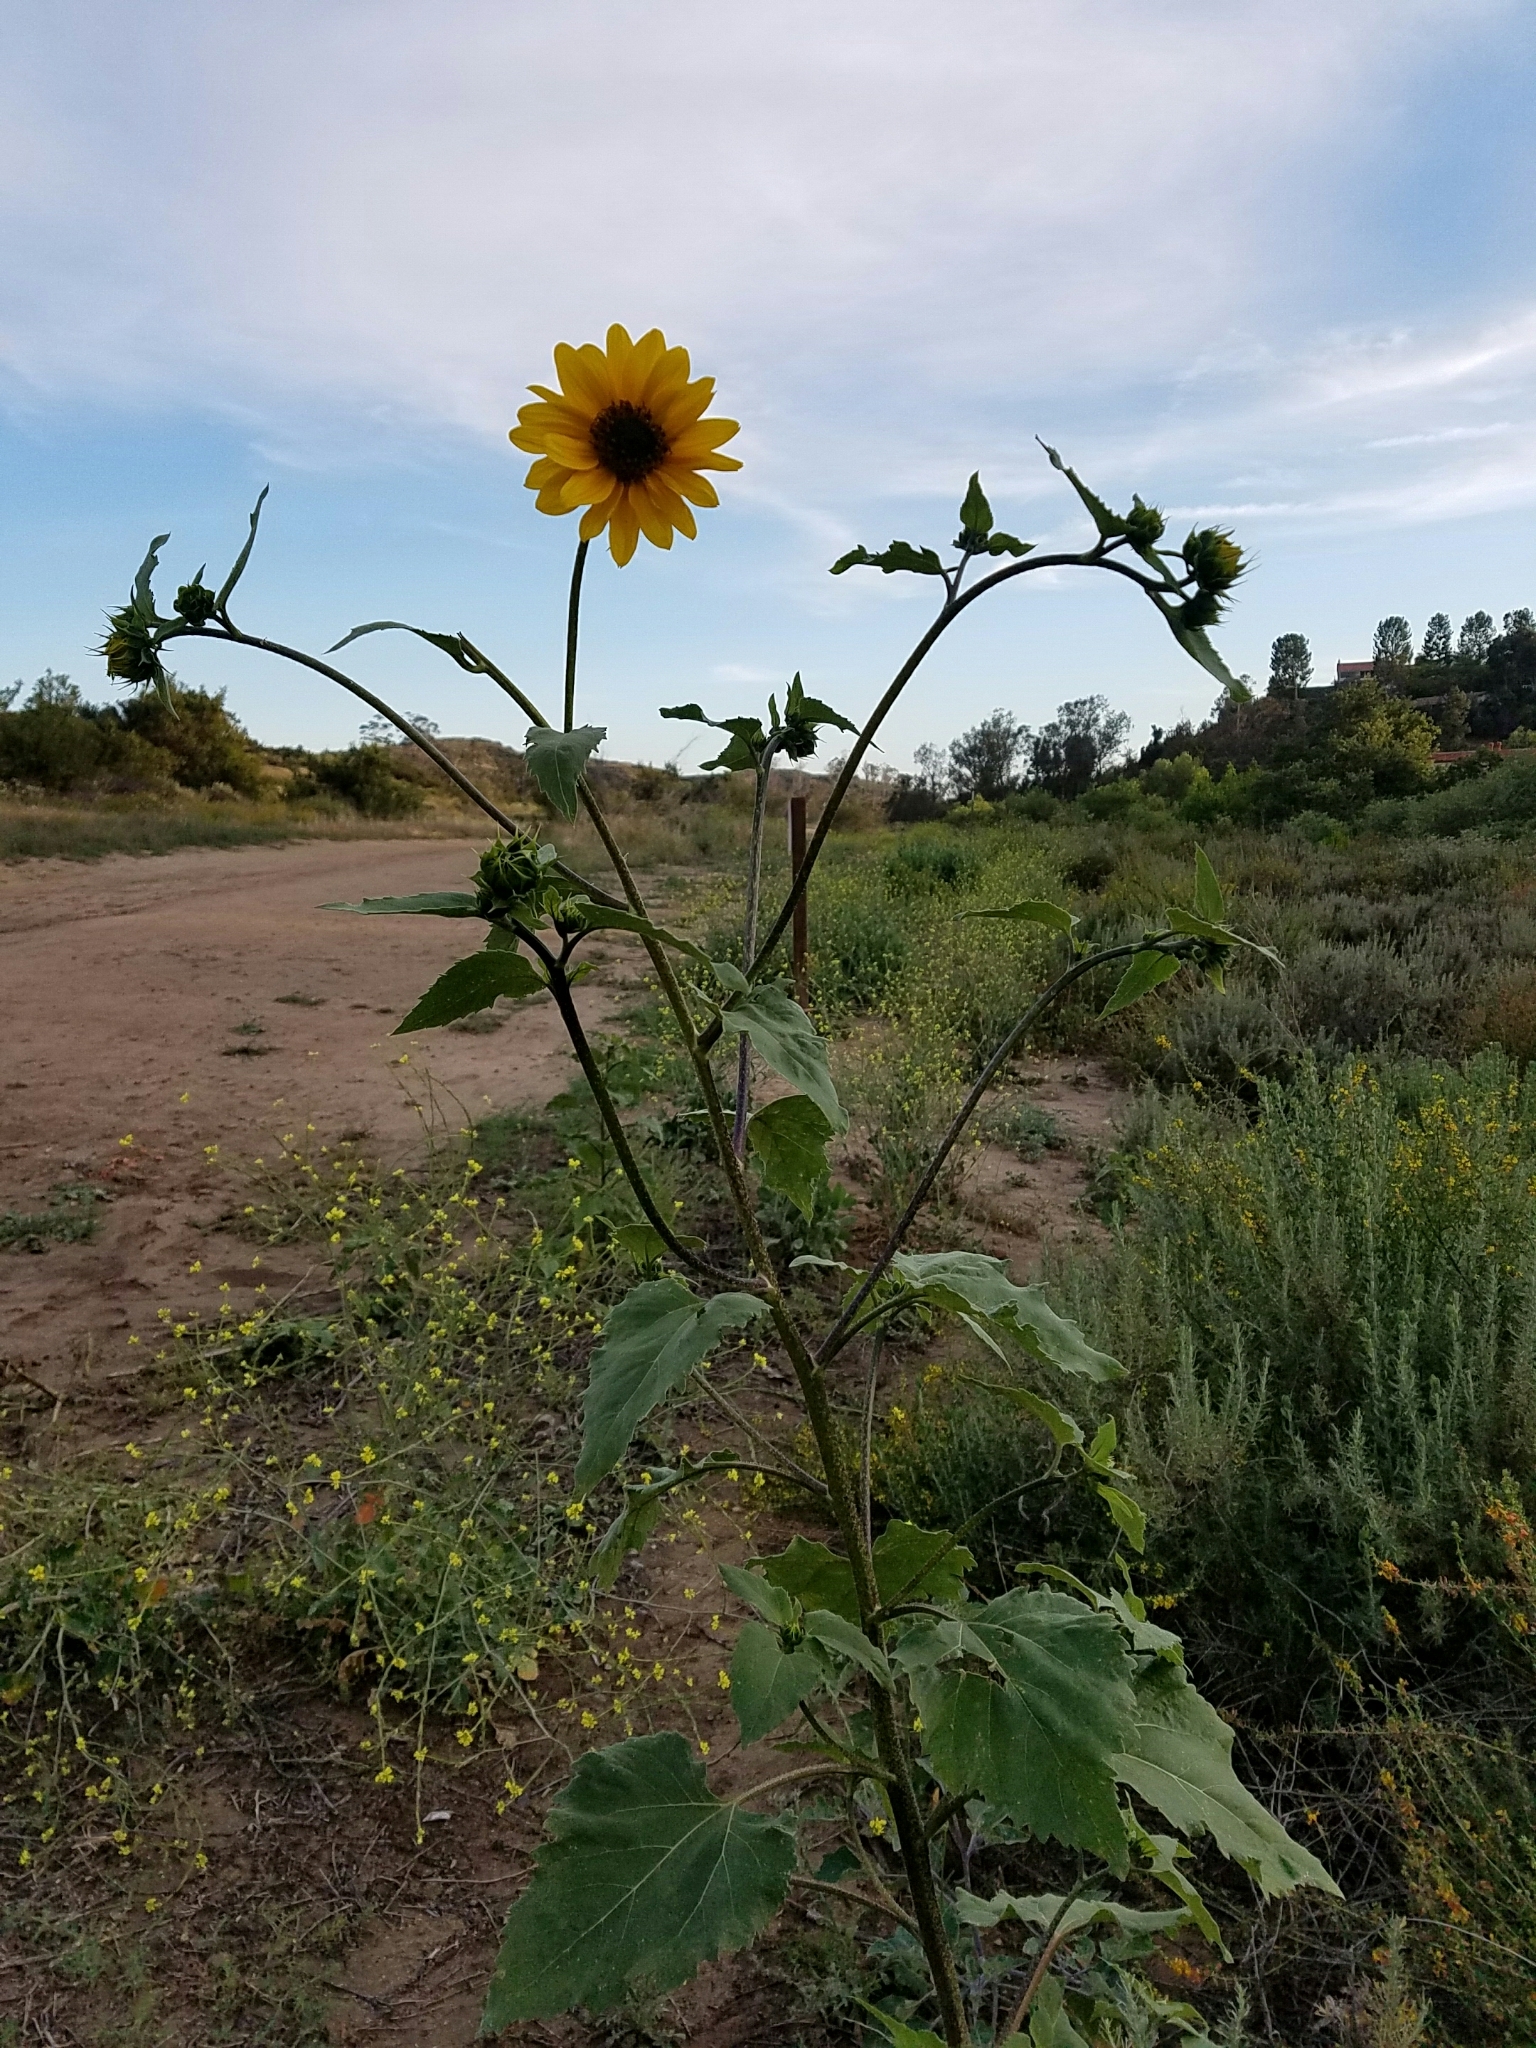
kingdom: Plantae
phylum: Tracheophyta
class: Magnoliopsida
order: Asterales
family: Asteraceae
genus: Helianthus
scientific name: Helianthus annuus
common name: Sunflower
